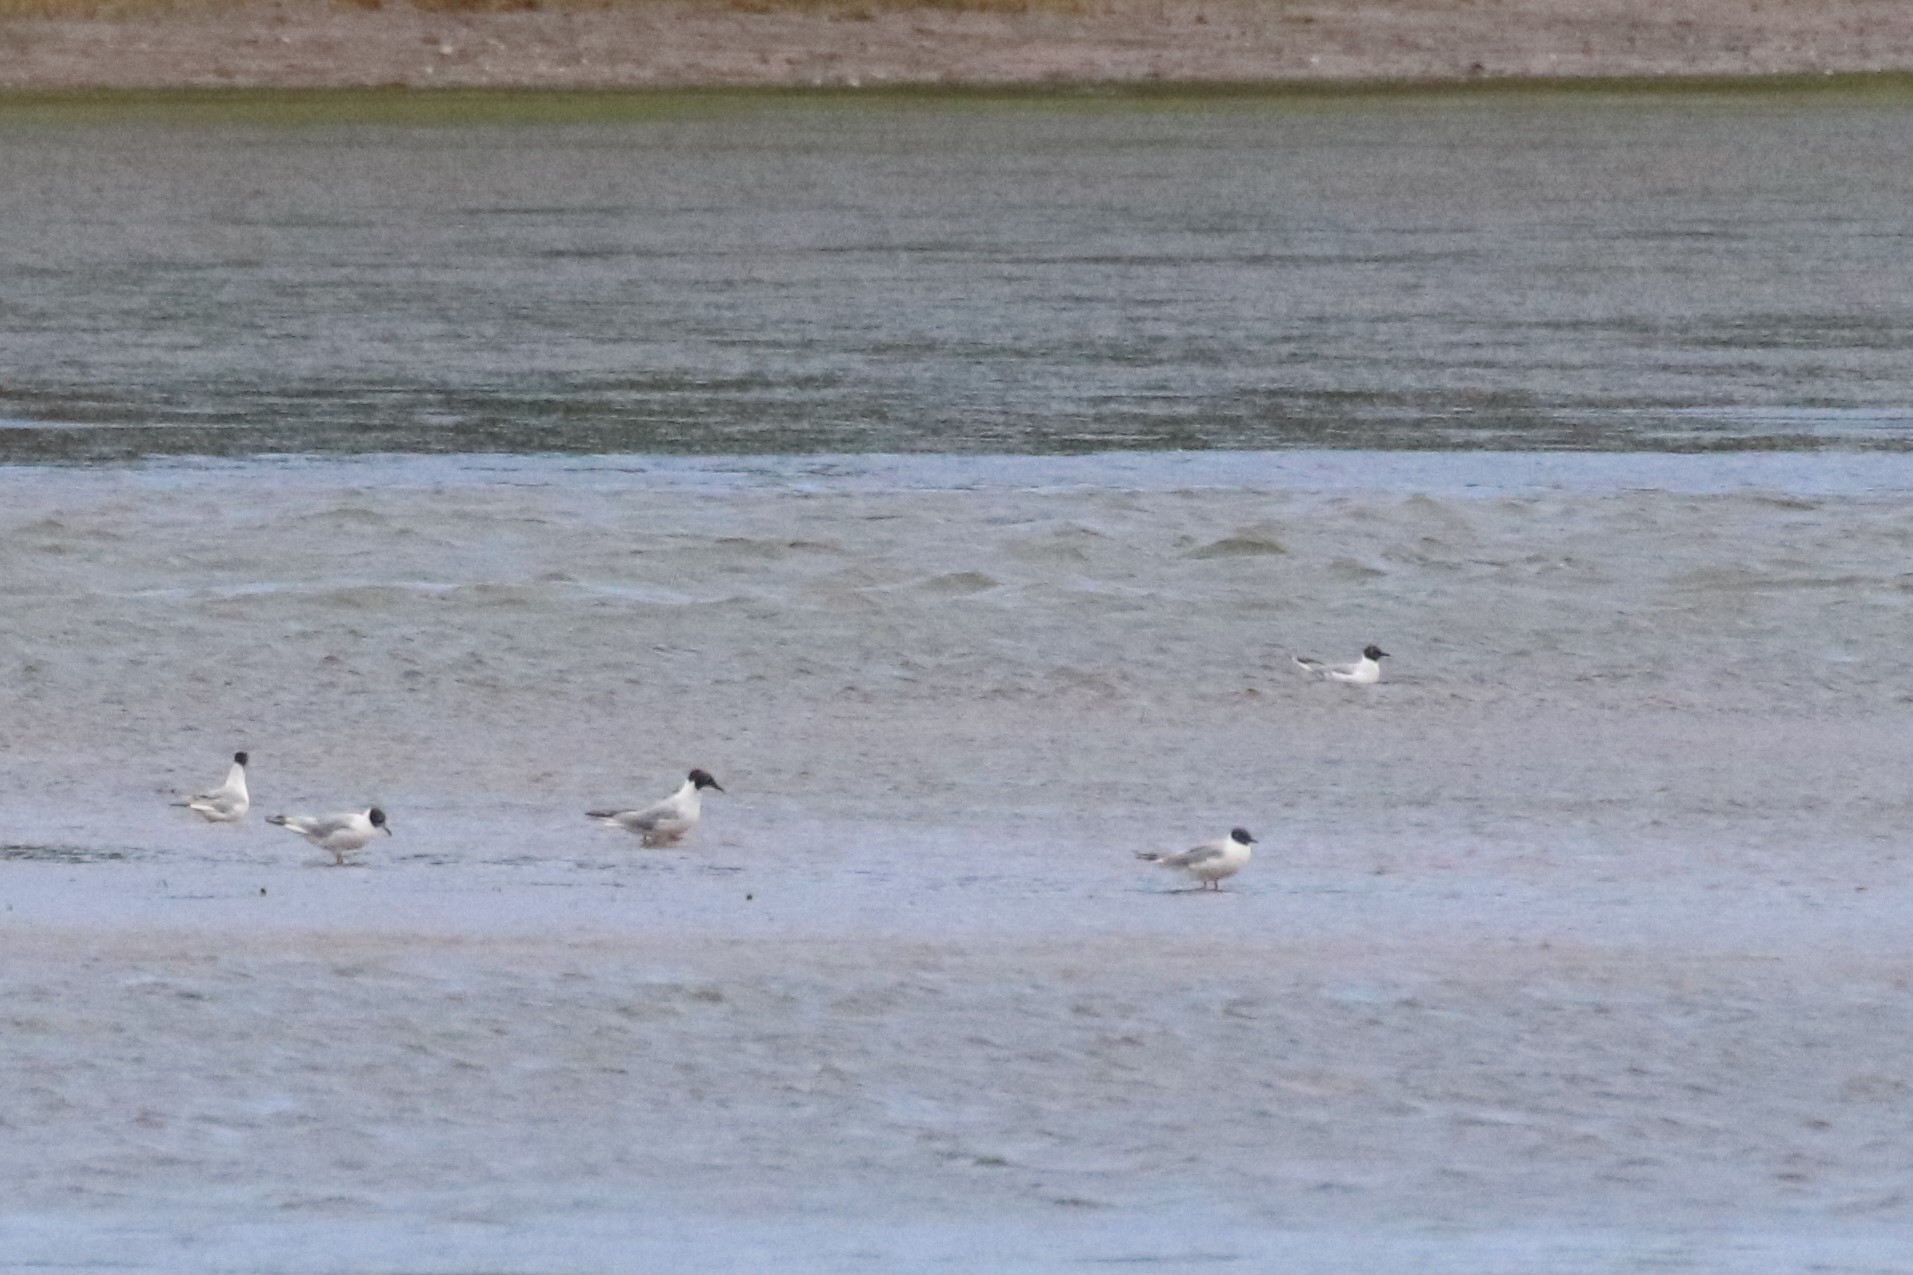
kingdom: Animalia
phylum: Chordata
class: Aves
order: Charadriiformes
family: Laridae
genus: Chroicocephalus
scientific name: Chroicocephalus philadelphia
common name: Bonaparte's gull
